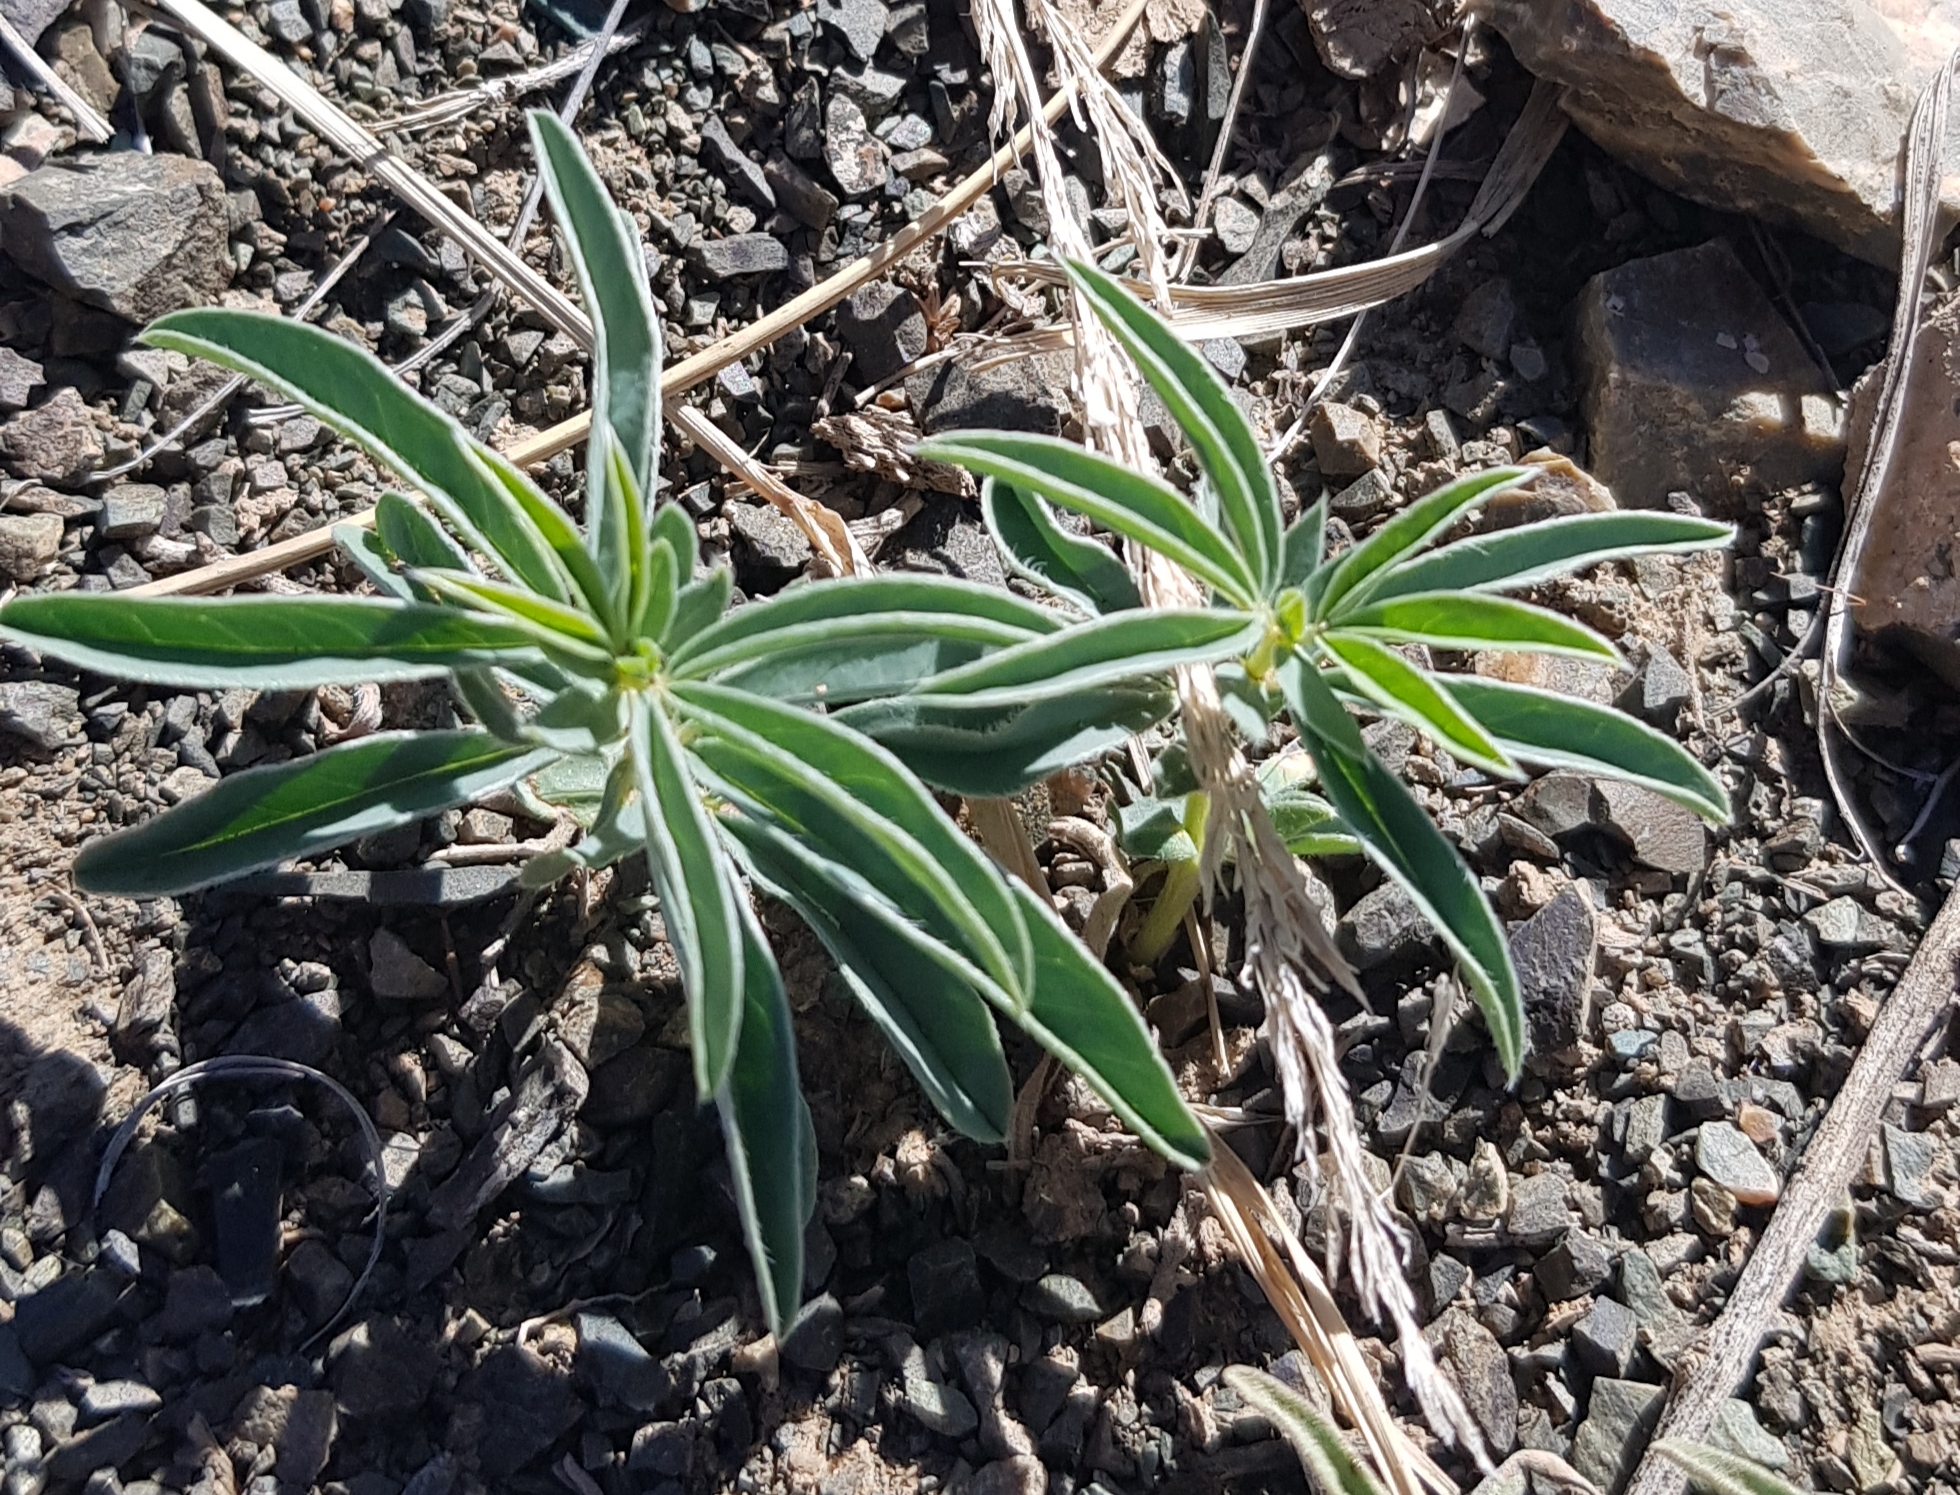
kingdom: Plantae
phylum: Tracheophyta
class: Magnoliopsida
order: Fabales
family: Fabaceae
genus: Thermopsis
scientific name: Thermopsis lanceolata
